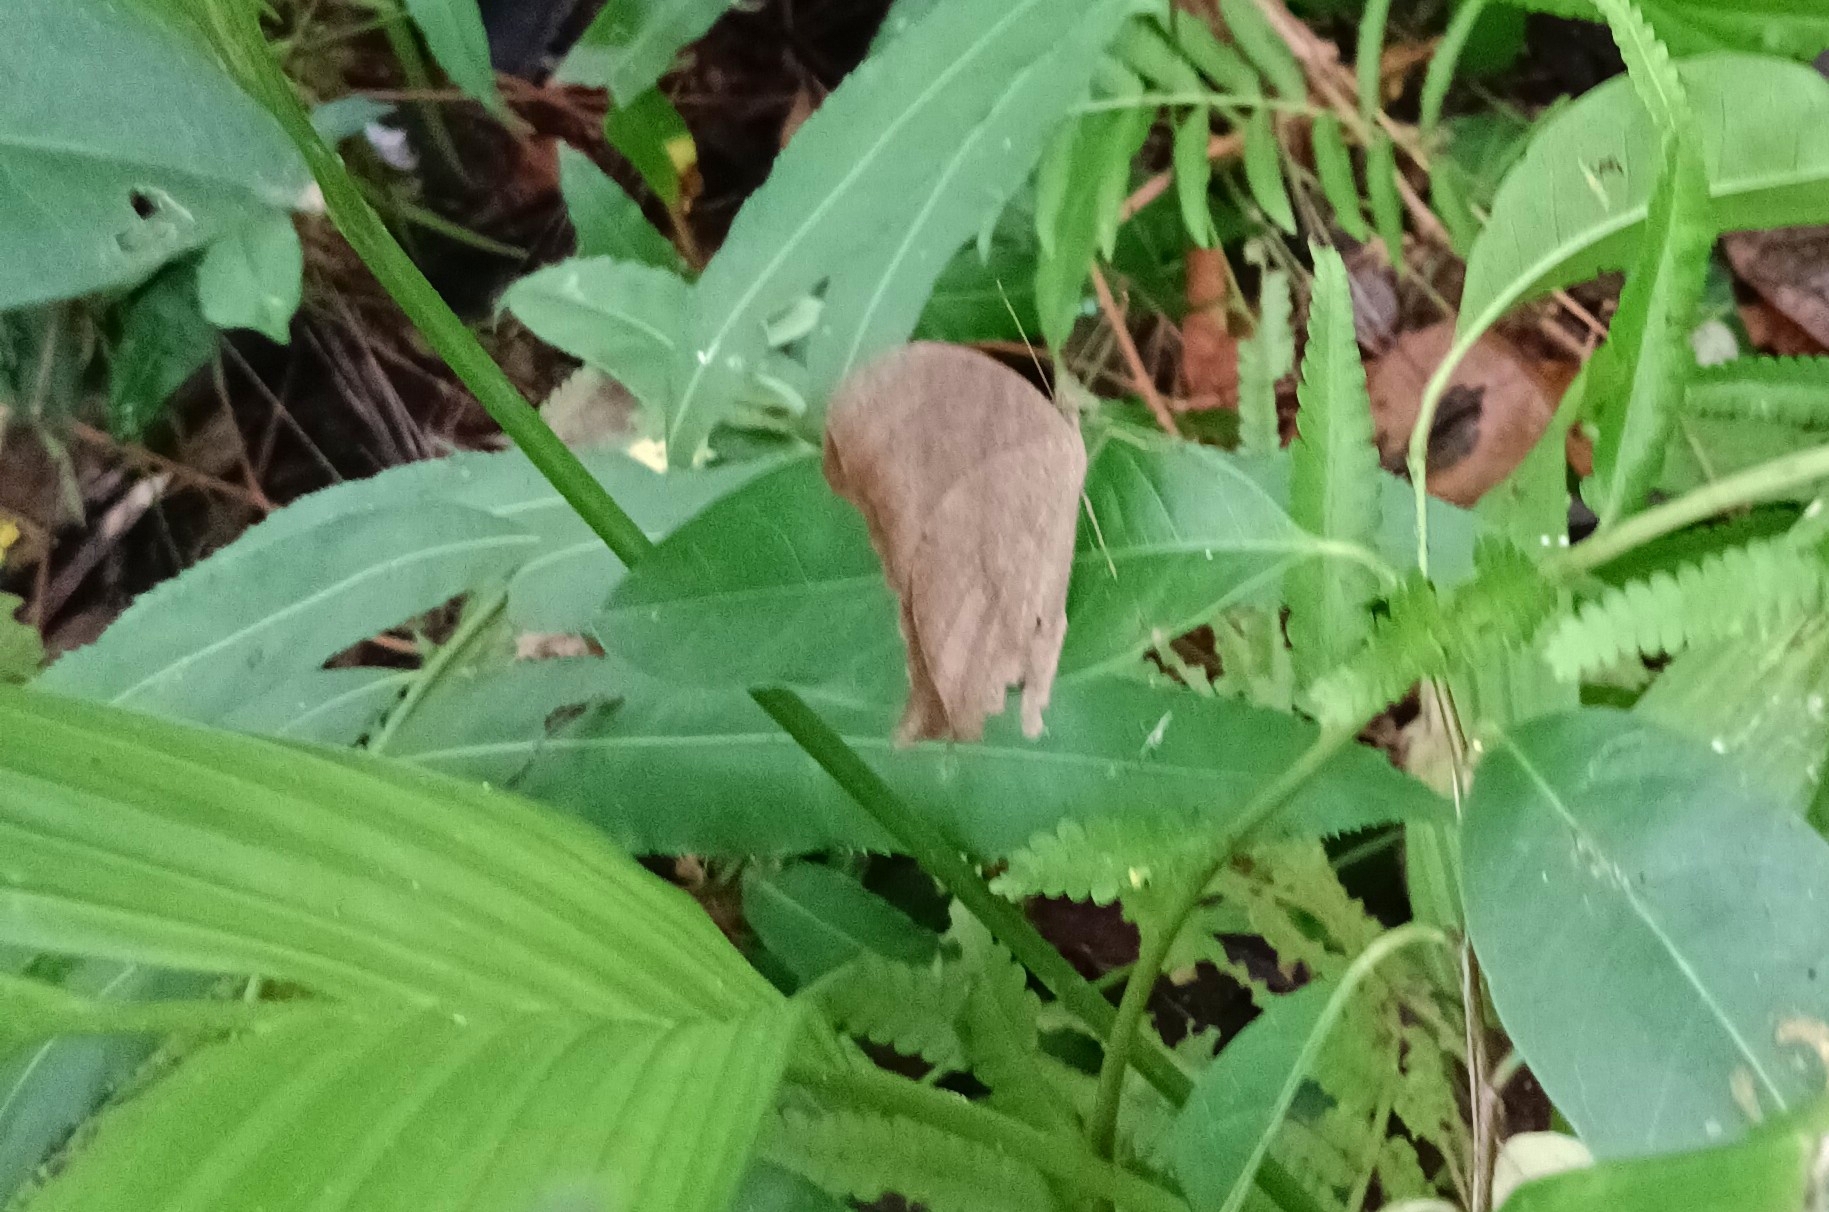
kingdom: Animalia
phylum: Arthropoda
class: Insecta
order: Lepidoptera
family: Nymphalidae
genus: Melanitis
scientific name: Melanitis leda
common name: Twilight brown
